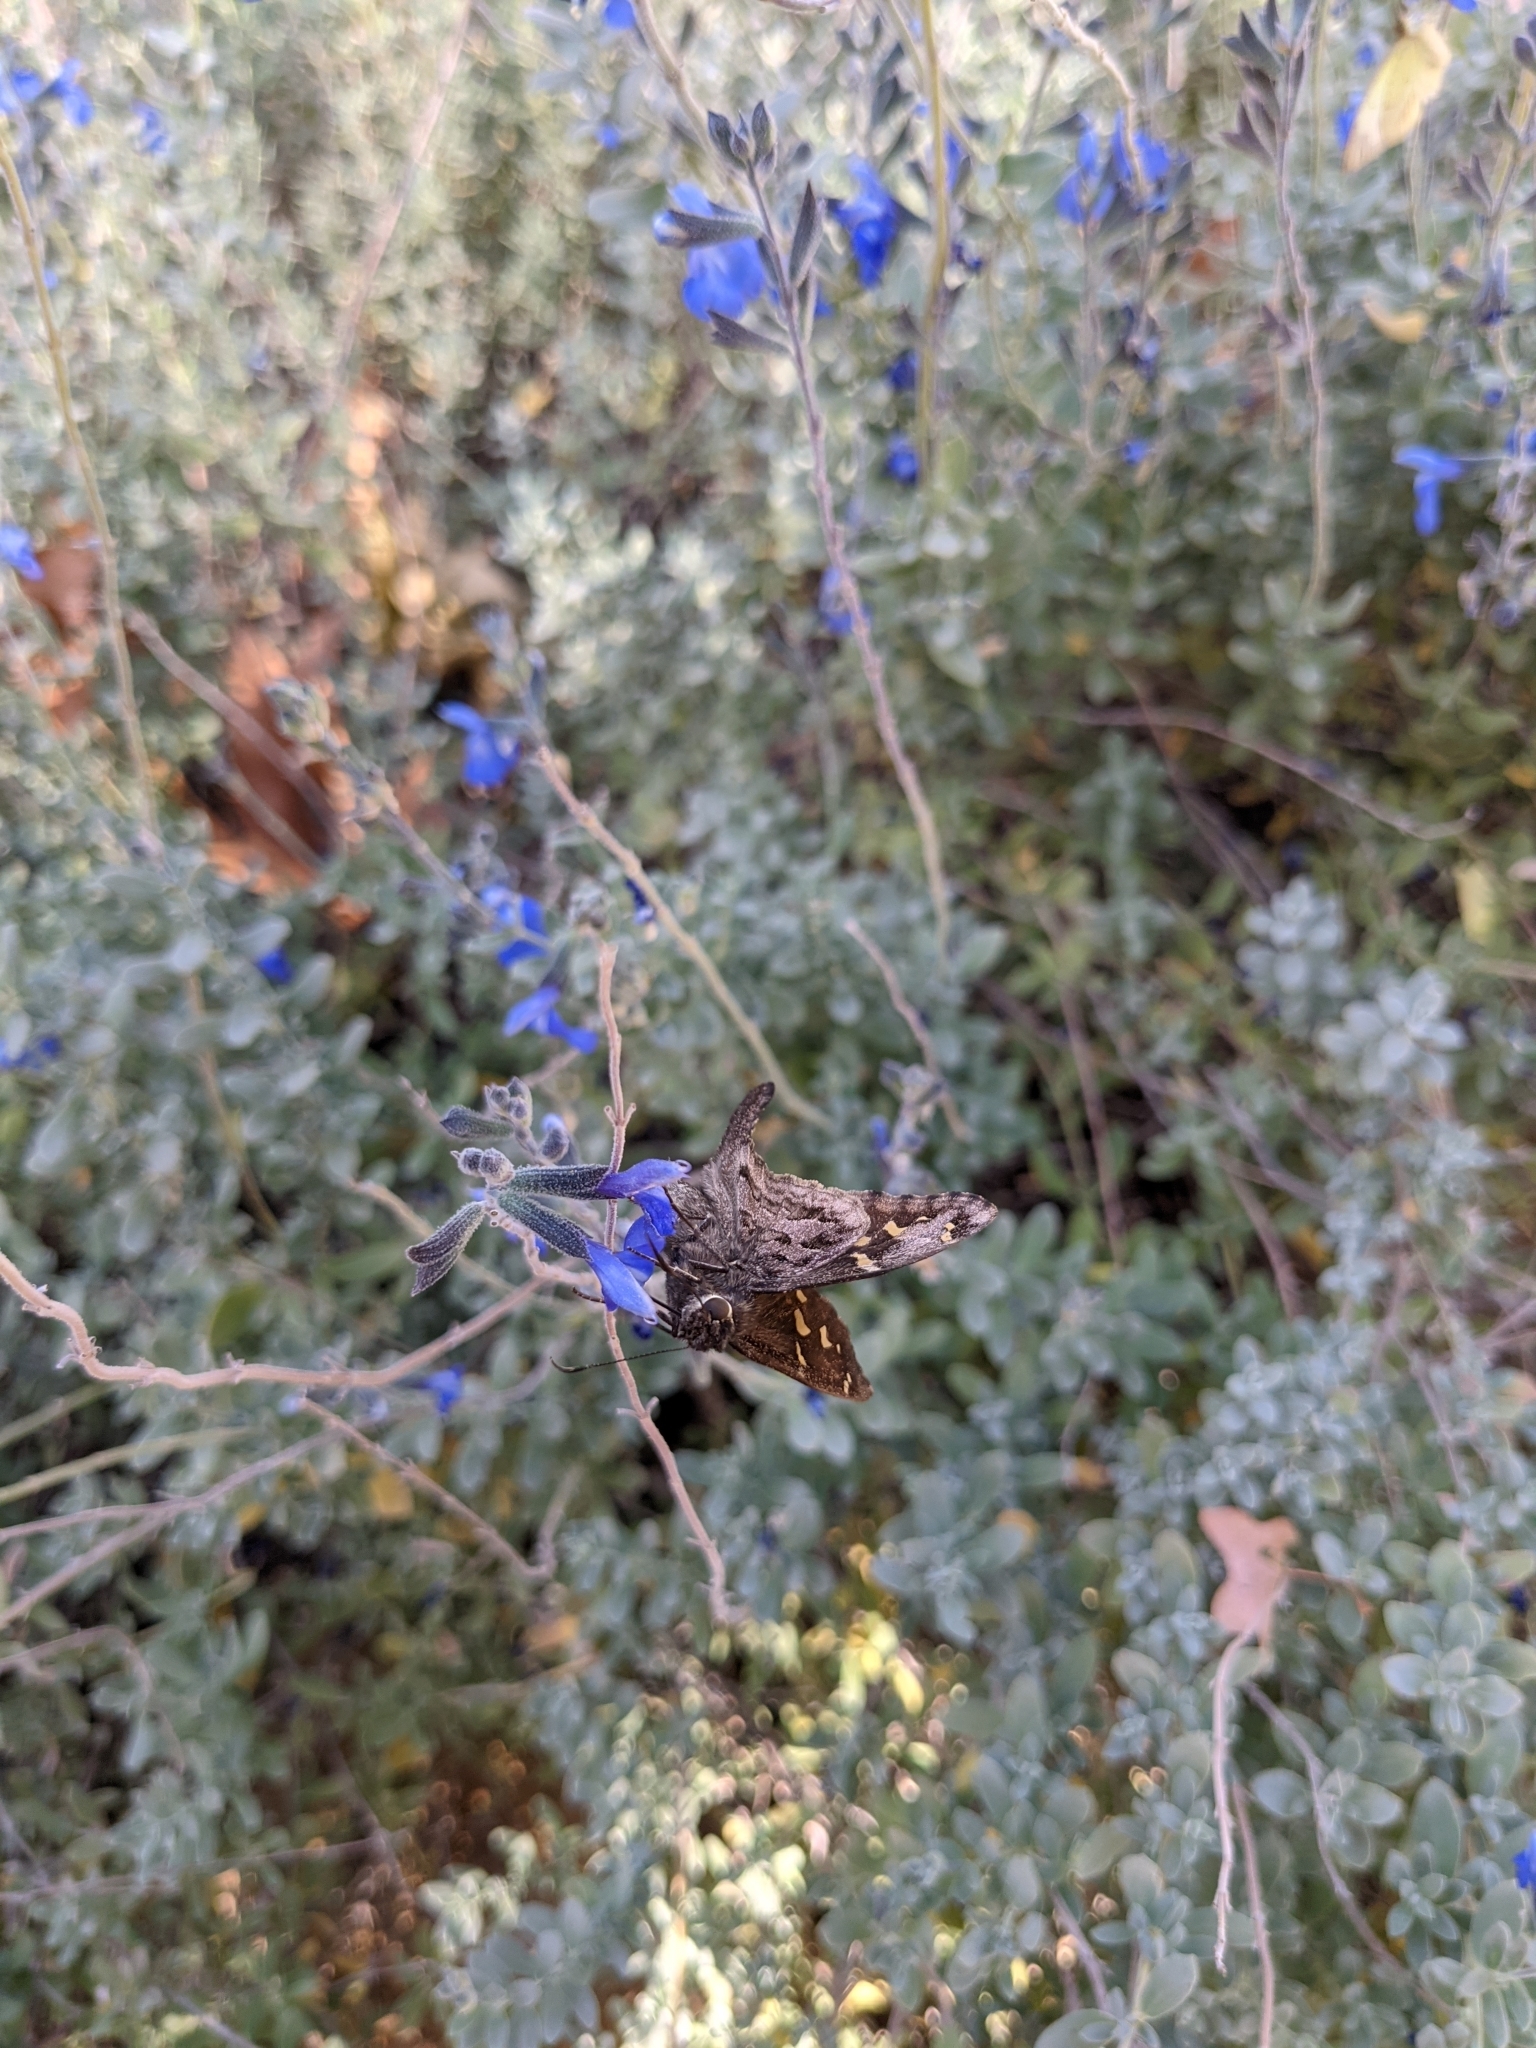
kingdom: Animalia
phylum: Arthropoda
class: Insecta
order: Lepidoptera
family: Hesperiidae
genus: Thorybes
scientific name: Thorybes
